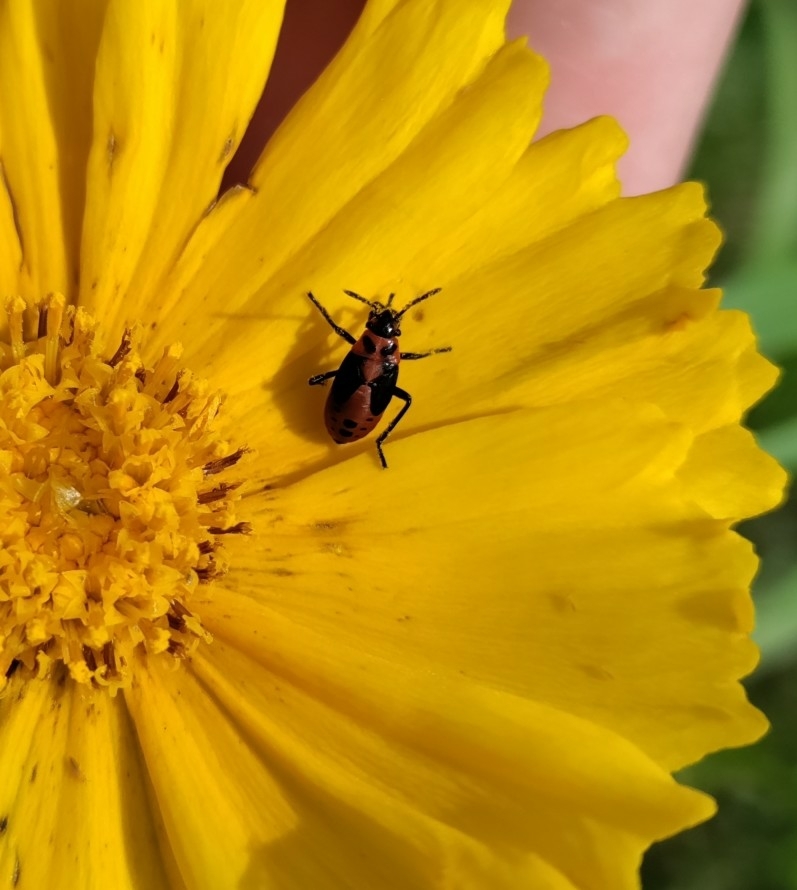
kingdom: Animalia
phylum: Arthropoda
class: Insecta
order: Hemiptera
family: Lygaeidae
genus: Lygaeus
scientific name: Lygaeus kalmii
